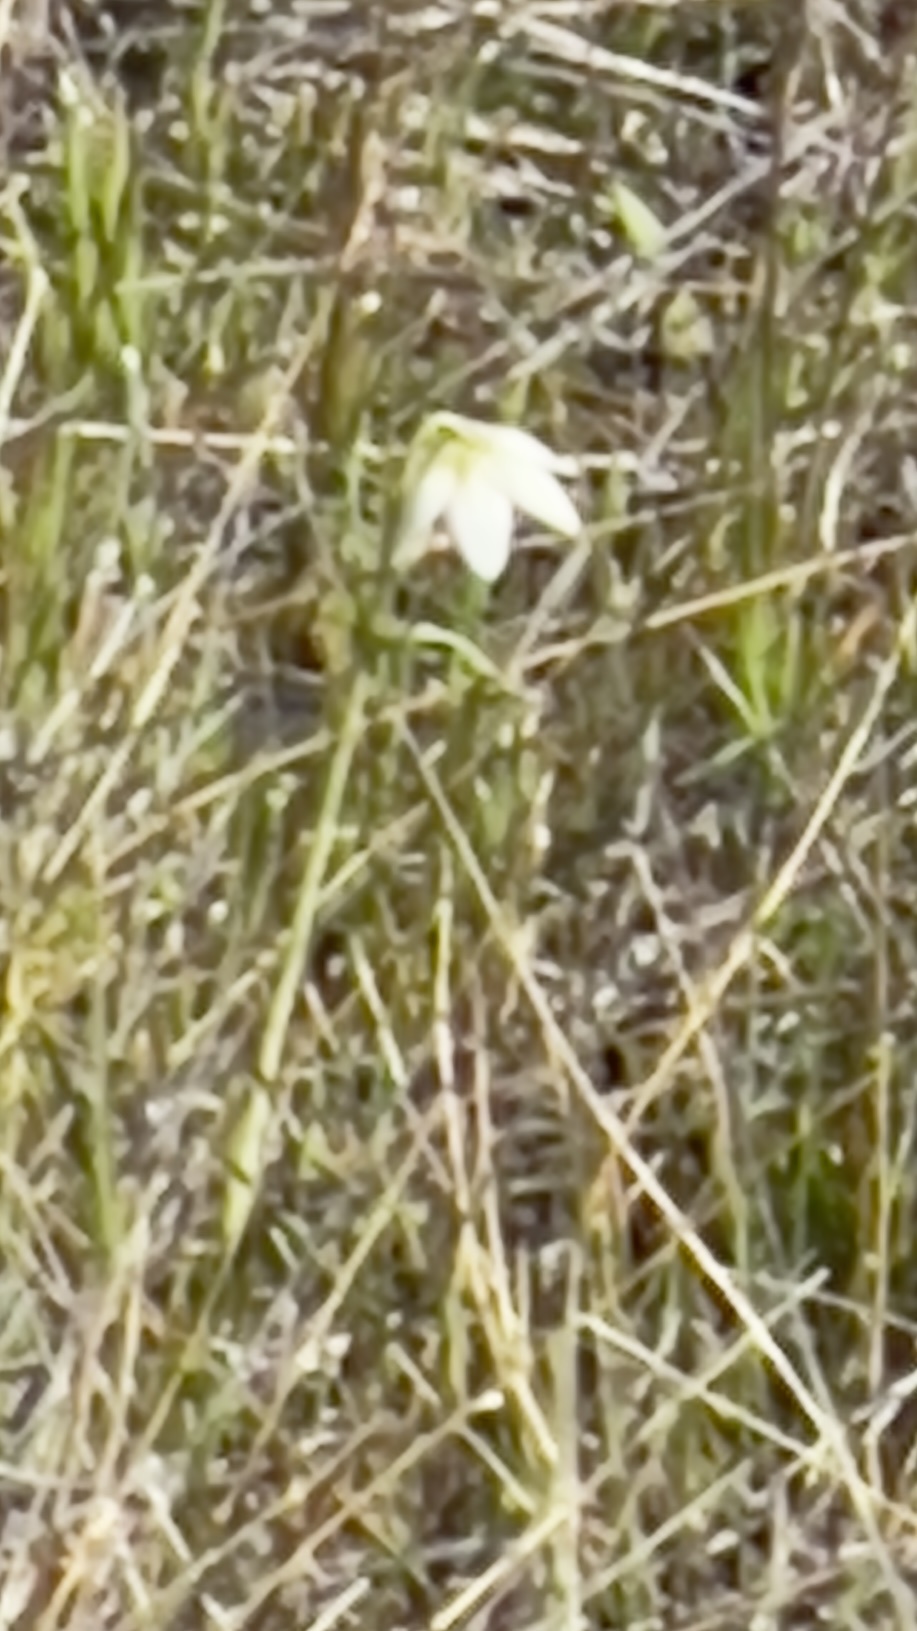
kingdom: Plantae
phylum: Tracheophyta
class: Liliopsida
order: Liliales
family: Liliaceae
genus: Fritillaria
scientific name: Fritillaria liliacea
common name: Fragrant fritillary
